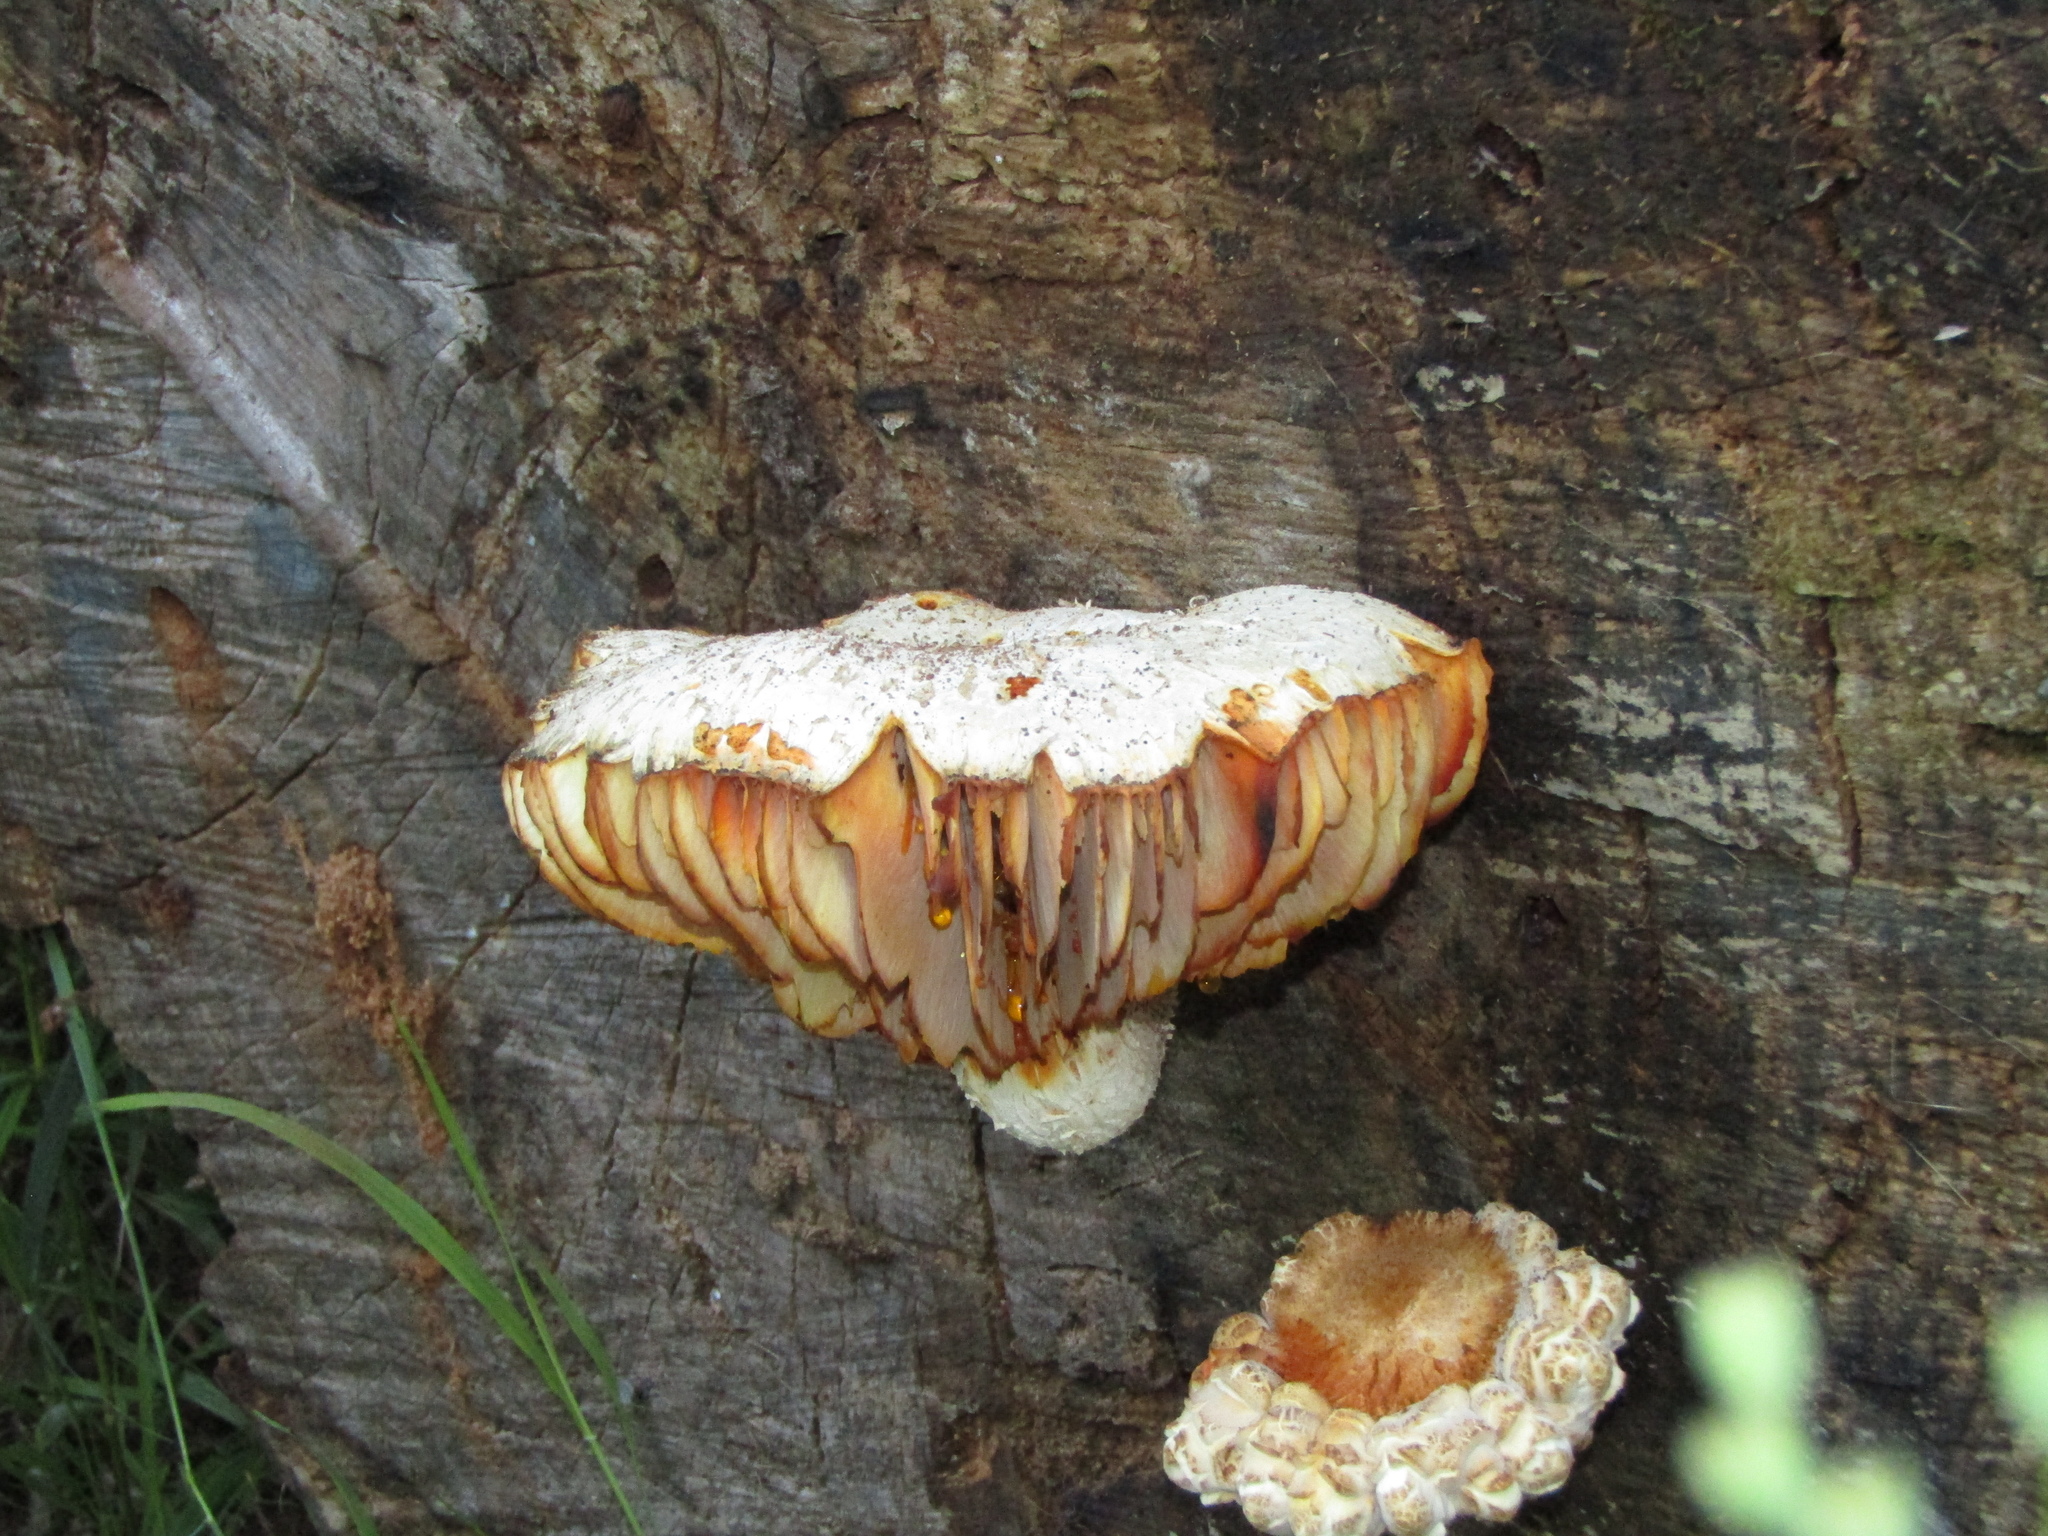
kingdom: Fungi
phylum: Basidiomycota
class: Agaricomycetes
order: Gloeophyllales
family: Gloeophyllaceae
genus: Neolentinus
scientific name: Neolentinus lepideus
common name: Scaly sawgill
